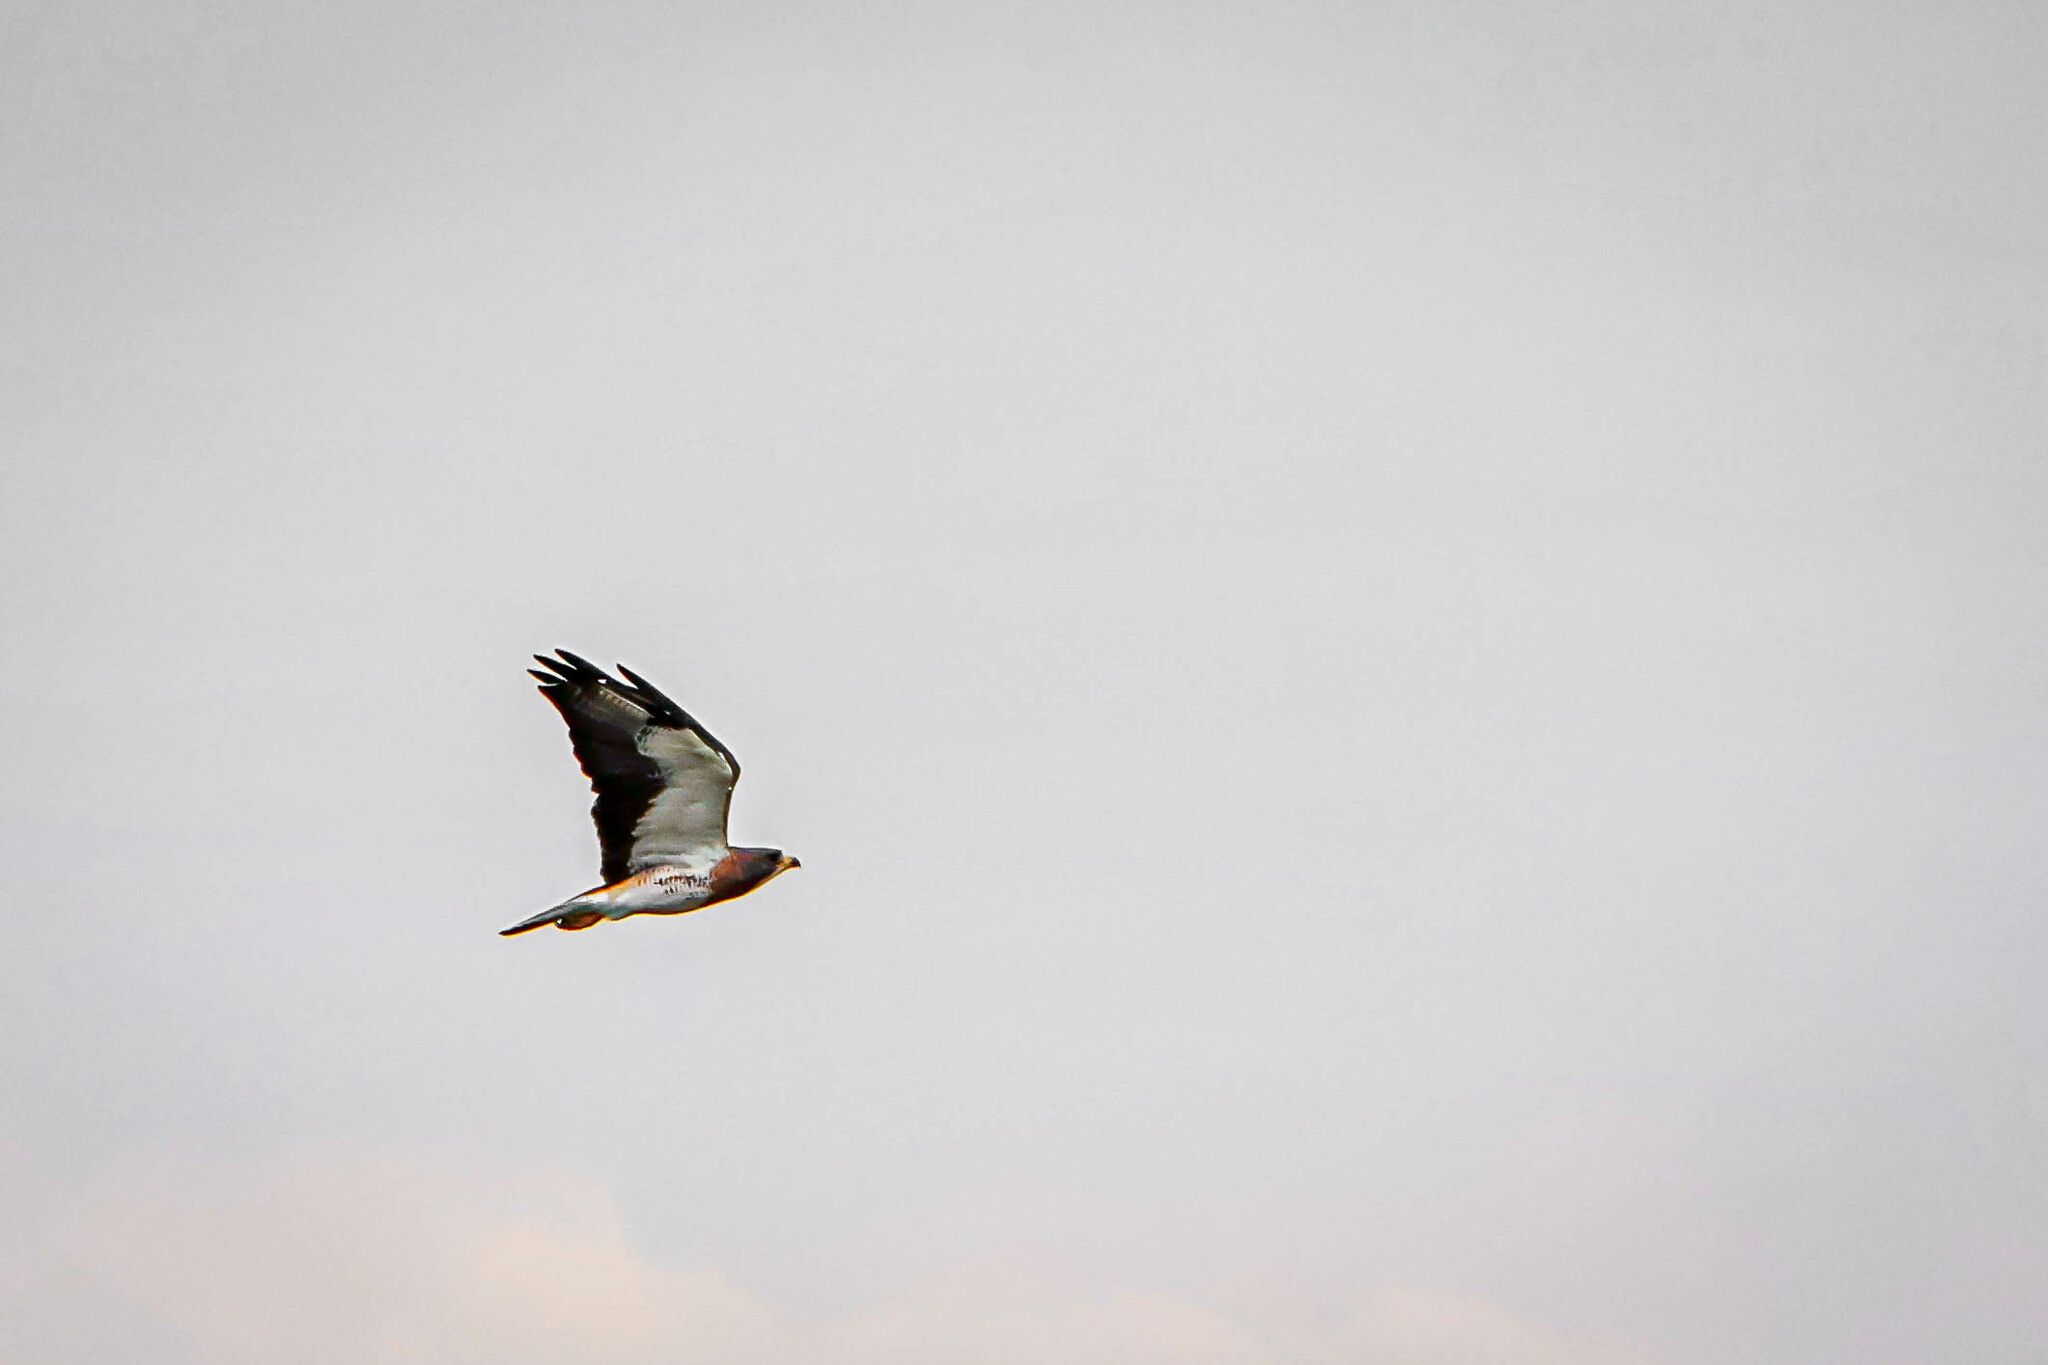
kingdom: Animalia
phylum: Chordata
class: Aves
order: Accipitriformes
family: Accipitridae
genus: Buteo
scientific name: Buteo swainsoni
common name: Swainson's hawk
